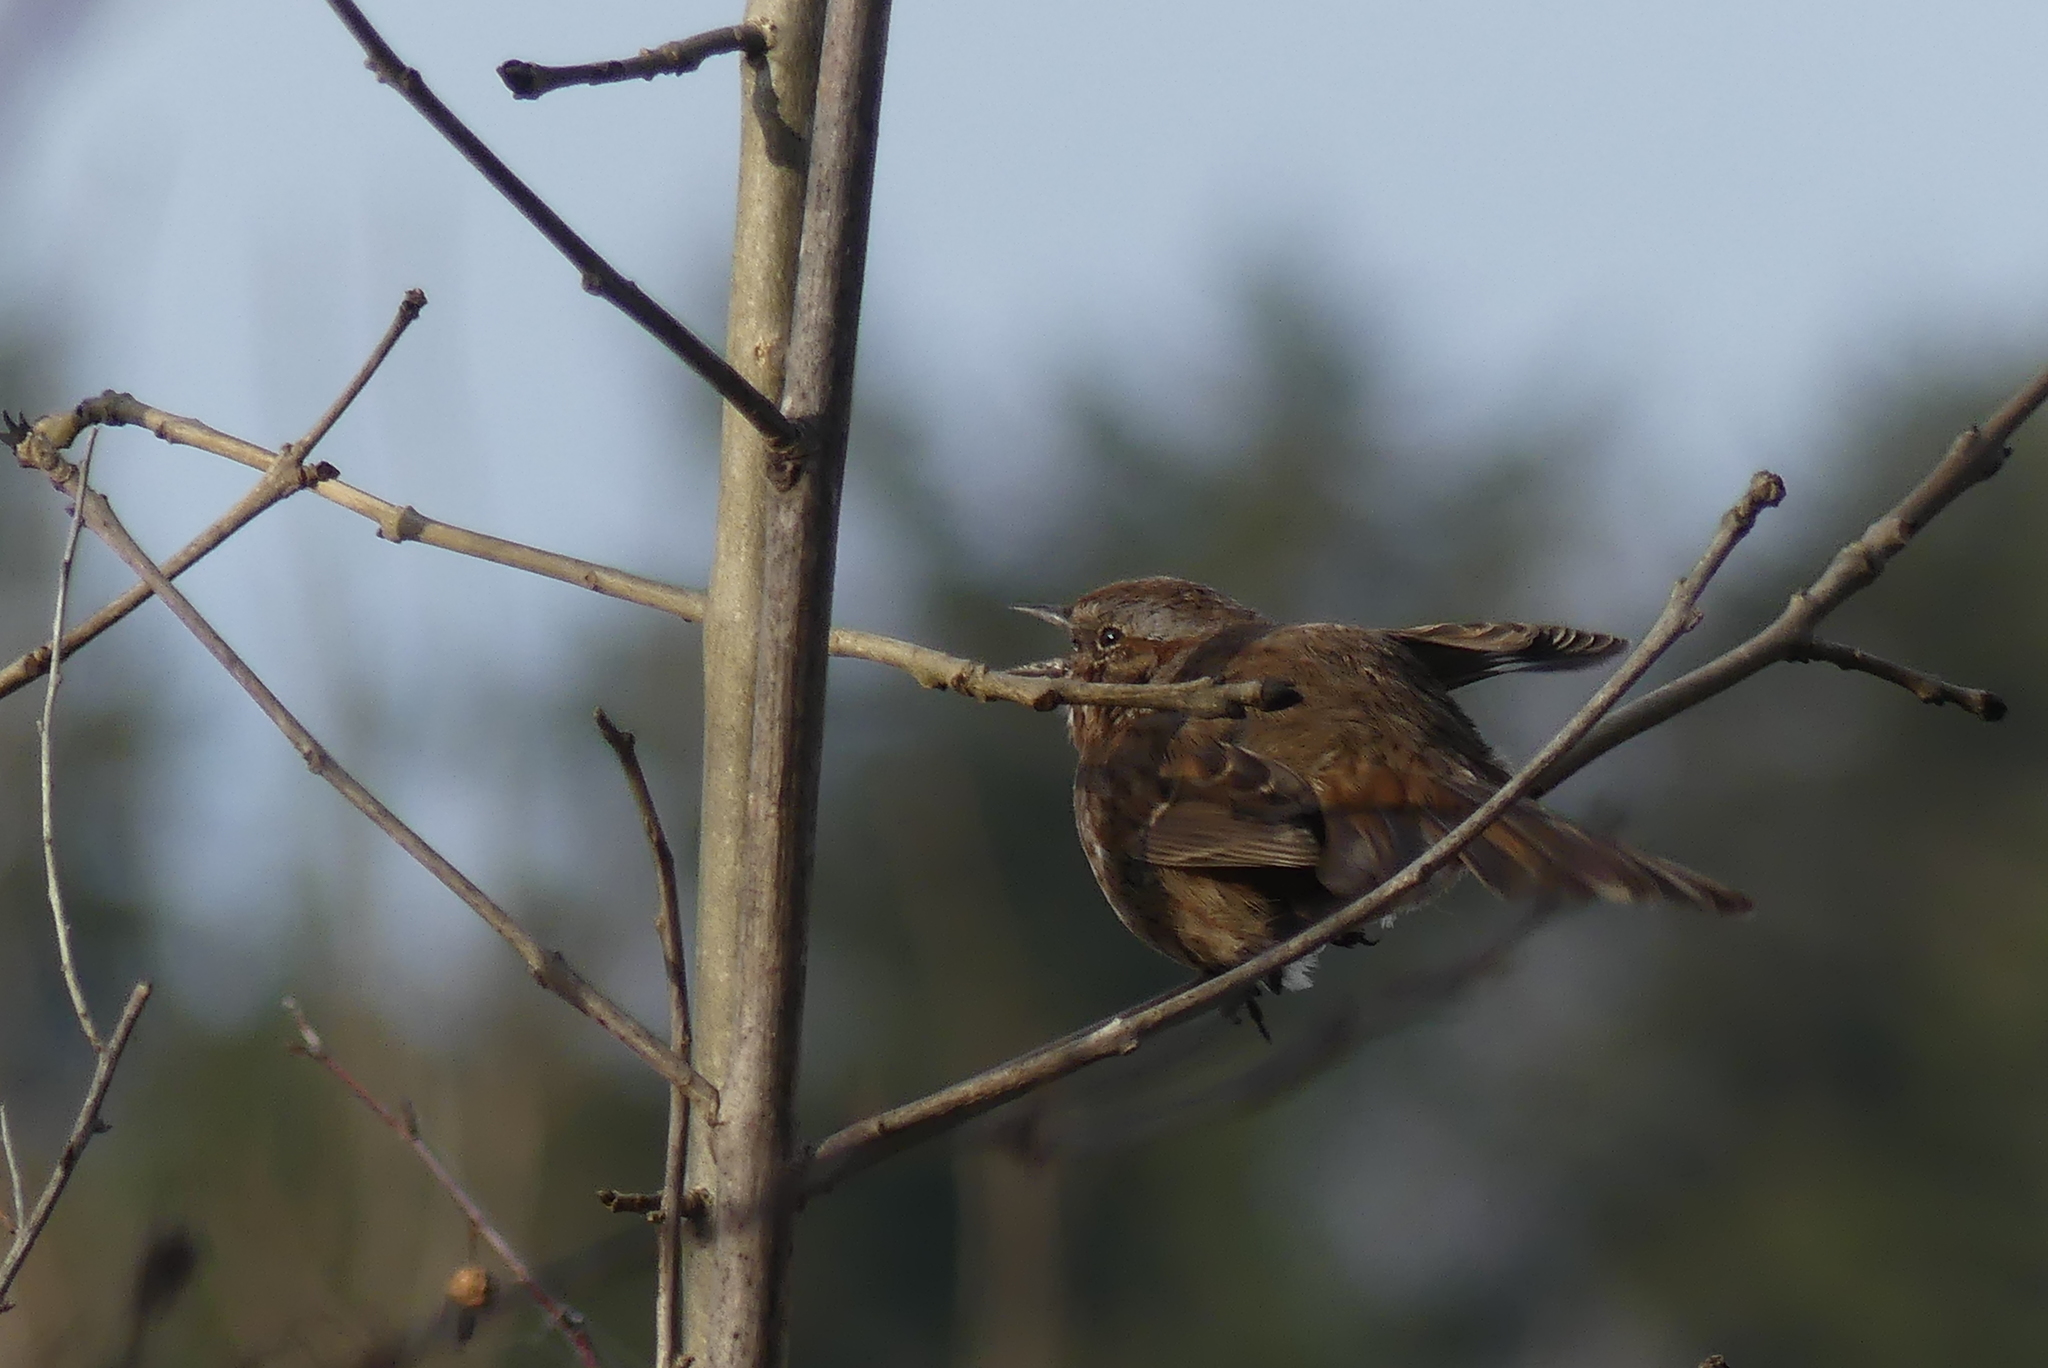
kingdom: Animalia
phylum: Chordata
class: Aves
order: Passeriformes
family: Passerellidae
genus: Melospiza
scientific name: Melospiza melodia
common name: Song sparrow
